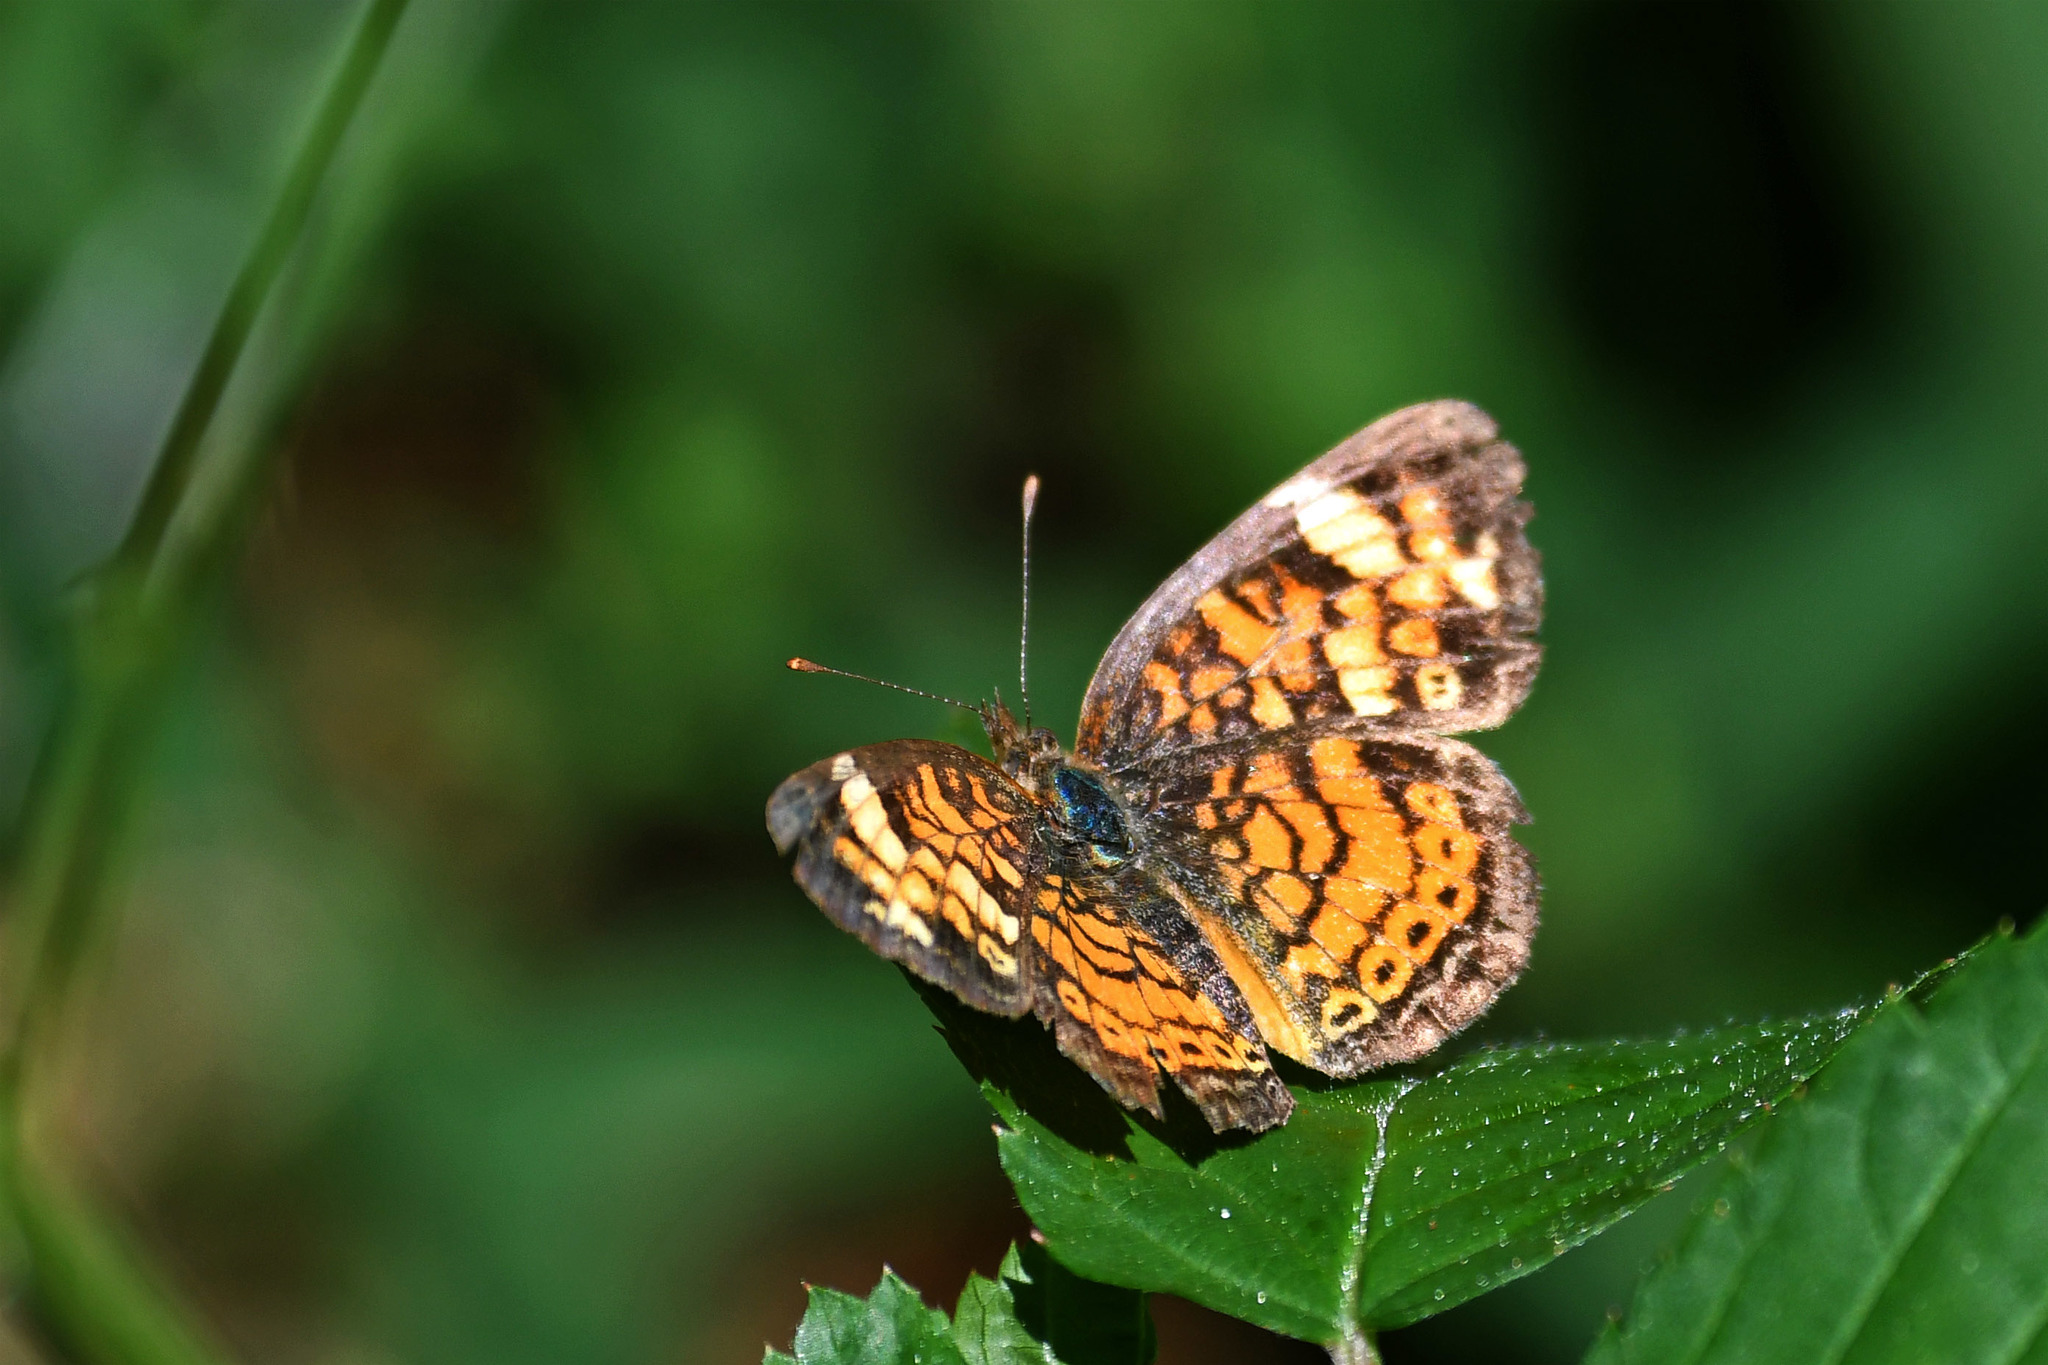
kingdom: Animalia
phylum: Arthropoda
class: Insecta
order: Lepidoptera
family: Nymphalidae
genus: Phyciodes
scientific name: Phyciodes tharos
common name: Pearl crescent
